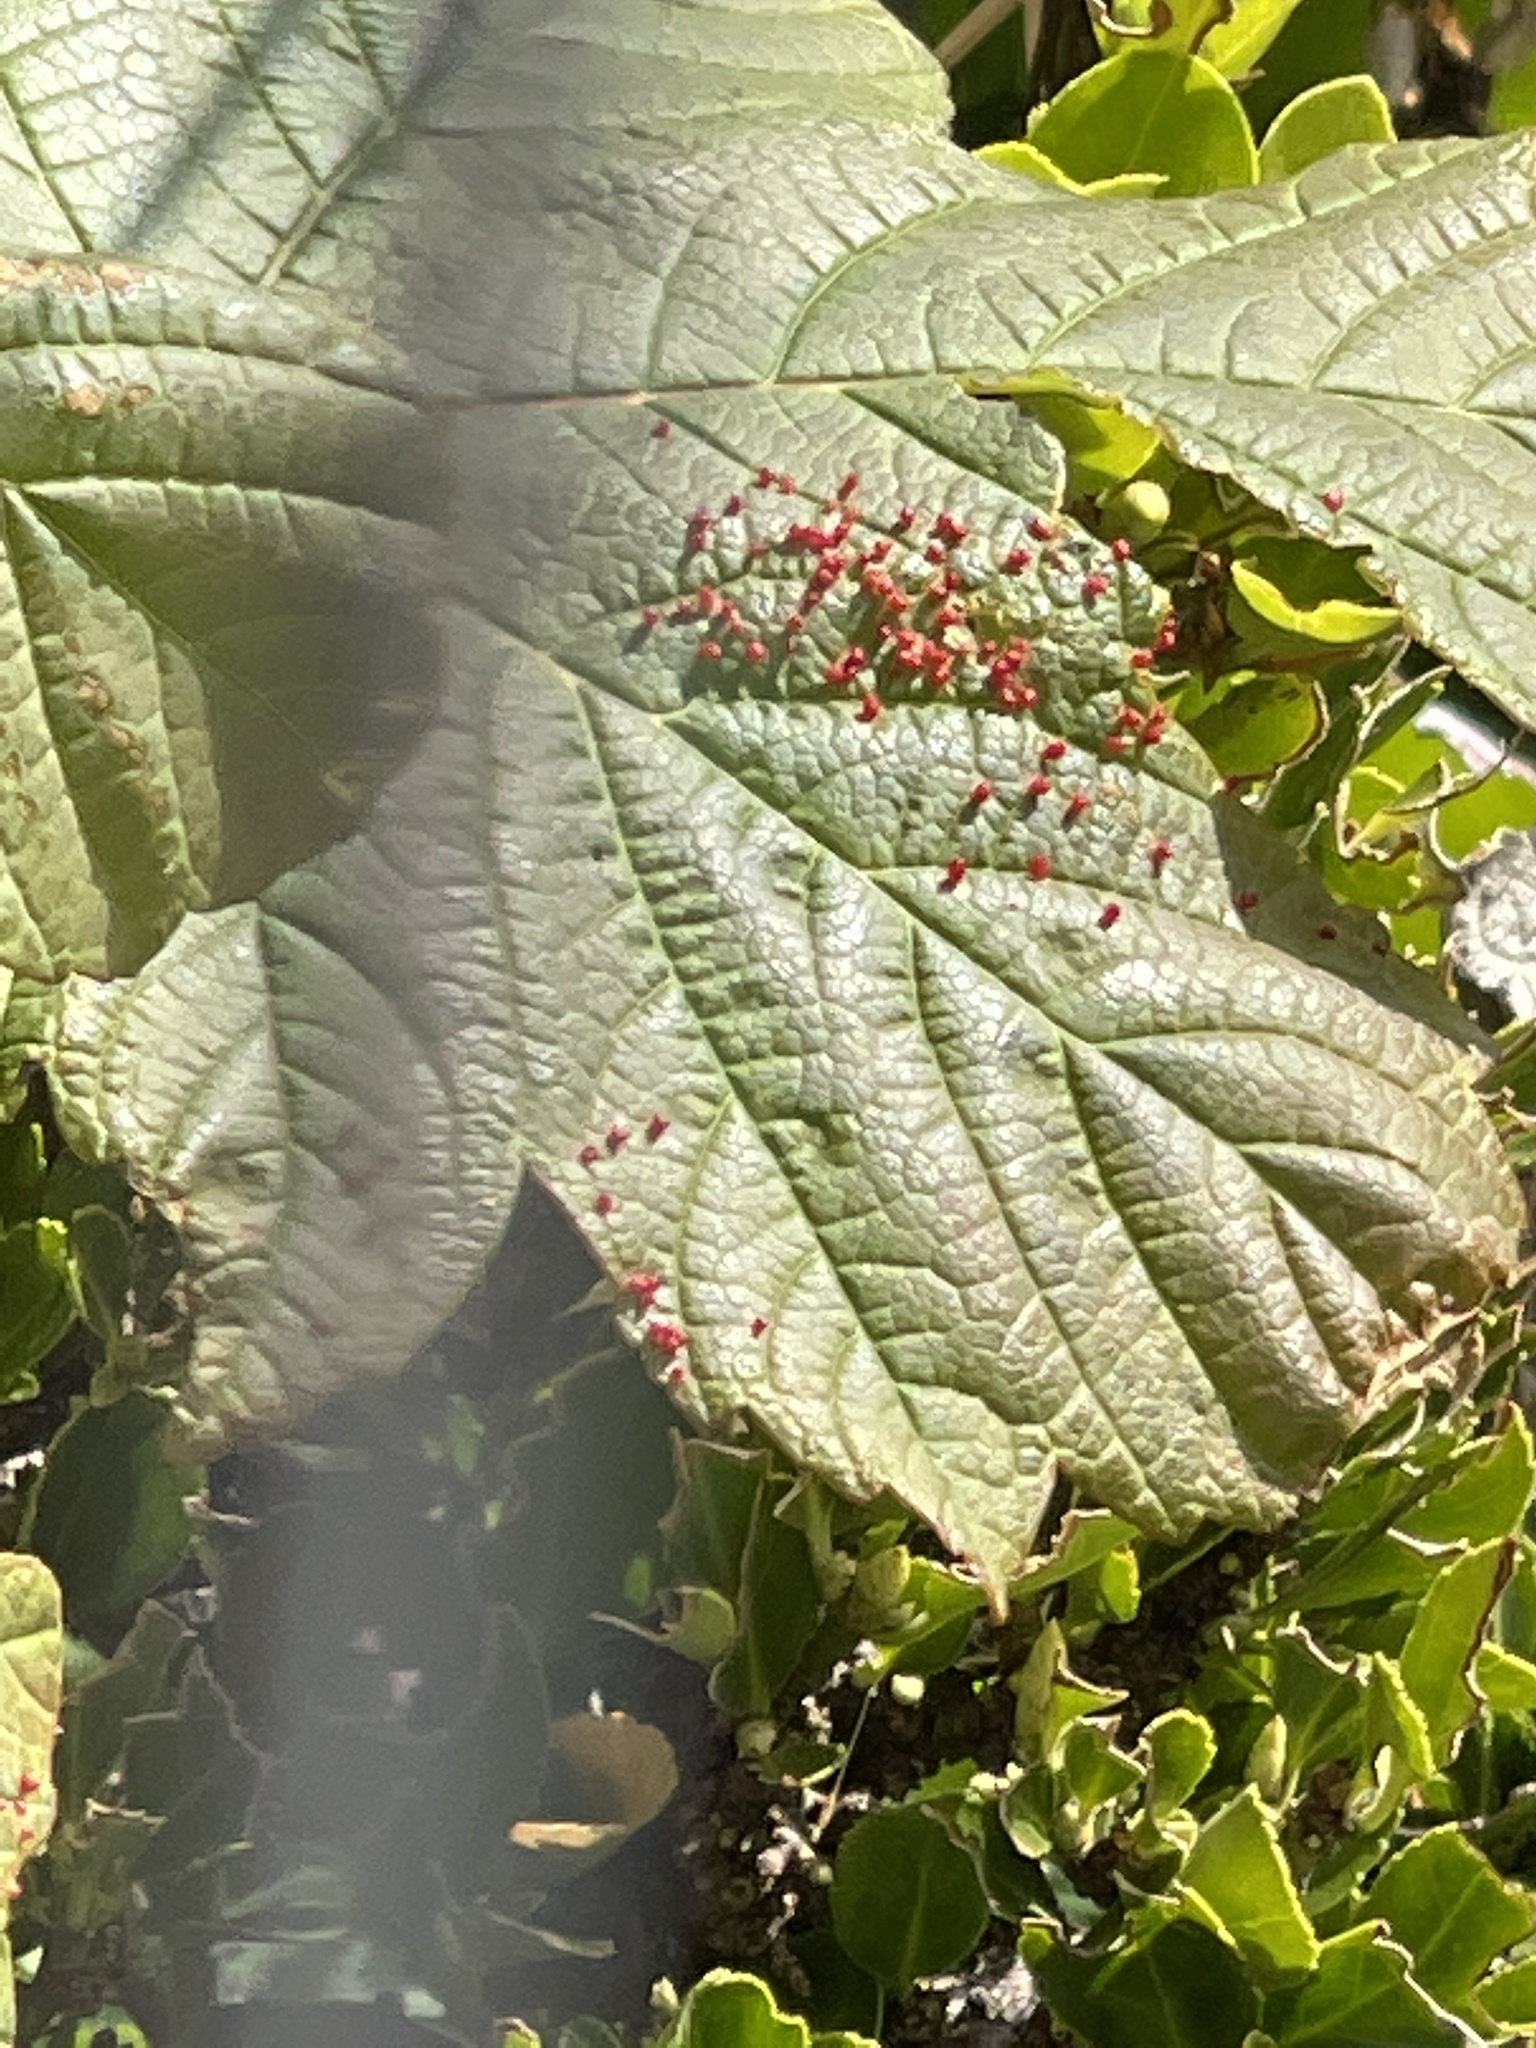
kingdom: Animalia
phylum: Arthropoda
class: Arachnida
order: Trombidiformes
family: Eriophyidae
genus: Aceria
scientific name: Aceria cephaloneus
